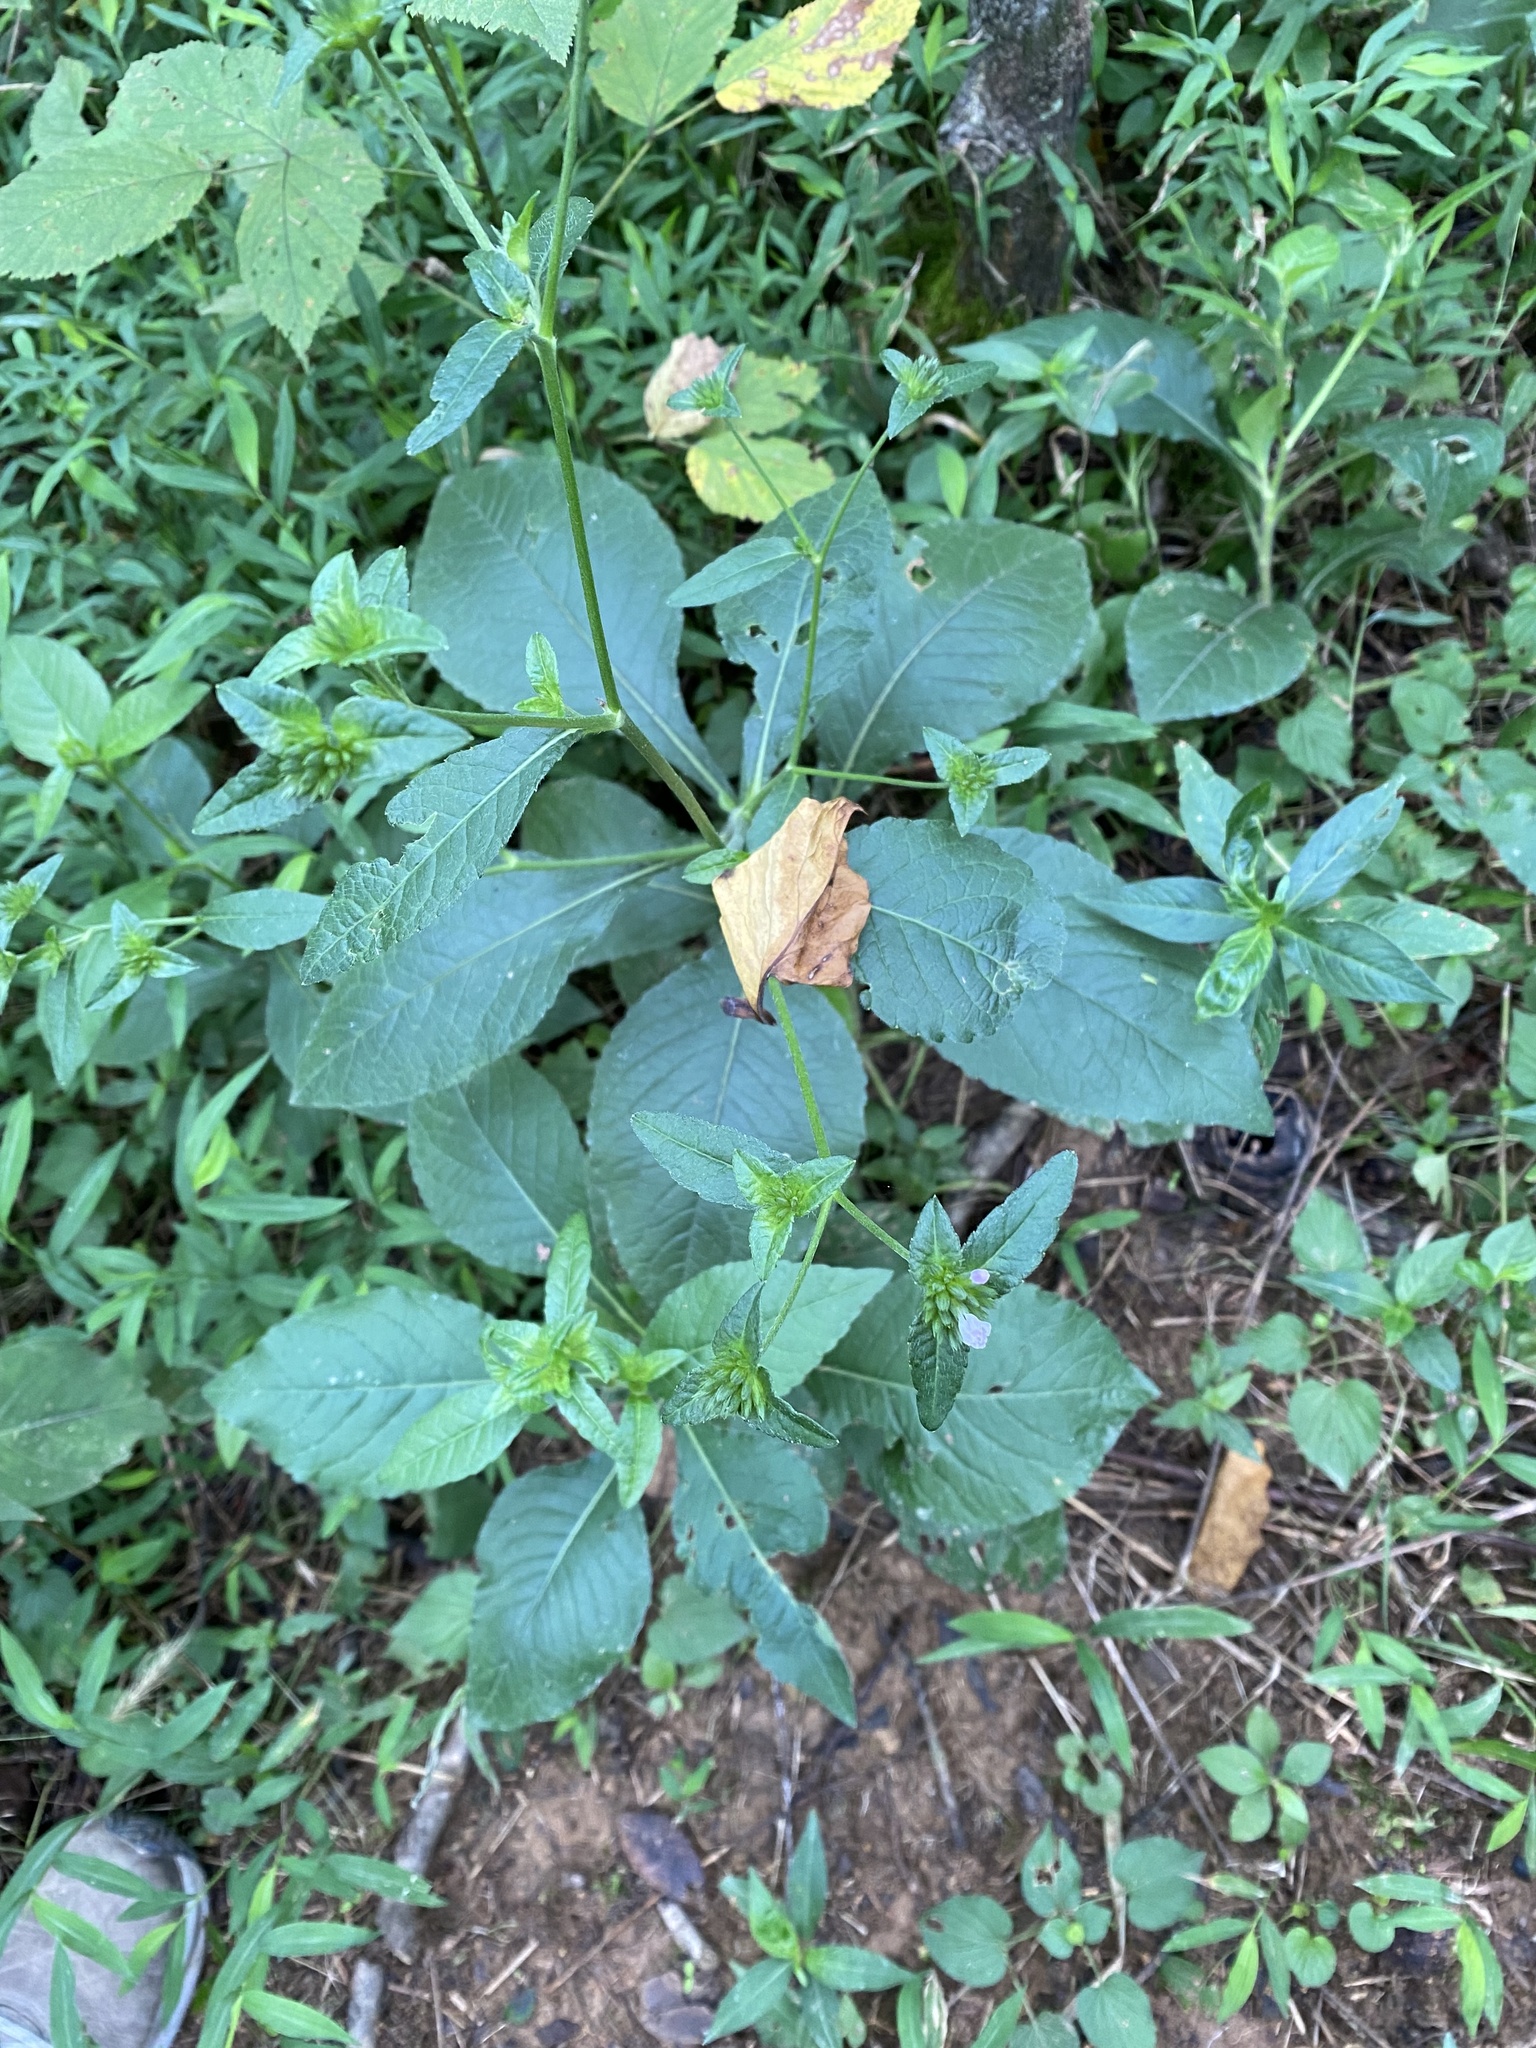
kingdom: Plantae
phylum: Tracheophyta
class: Magnoliopsida
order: Asterales
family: Asteraceae
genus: Elephantopus
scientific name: Elephantopus carolinianus
